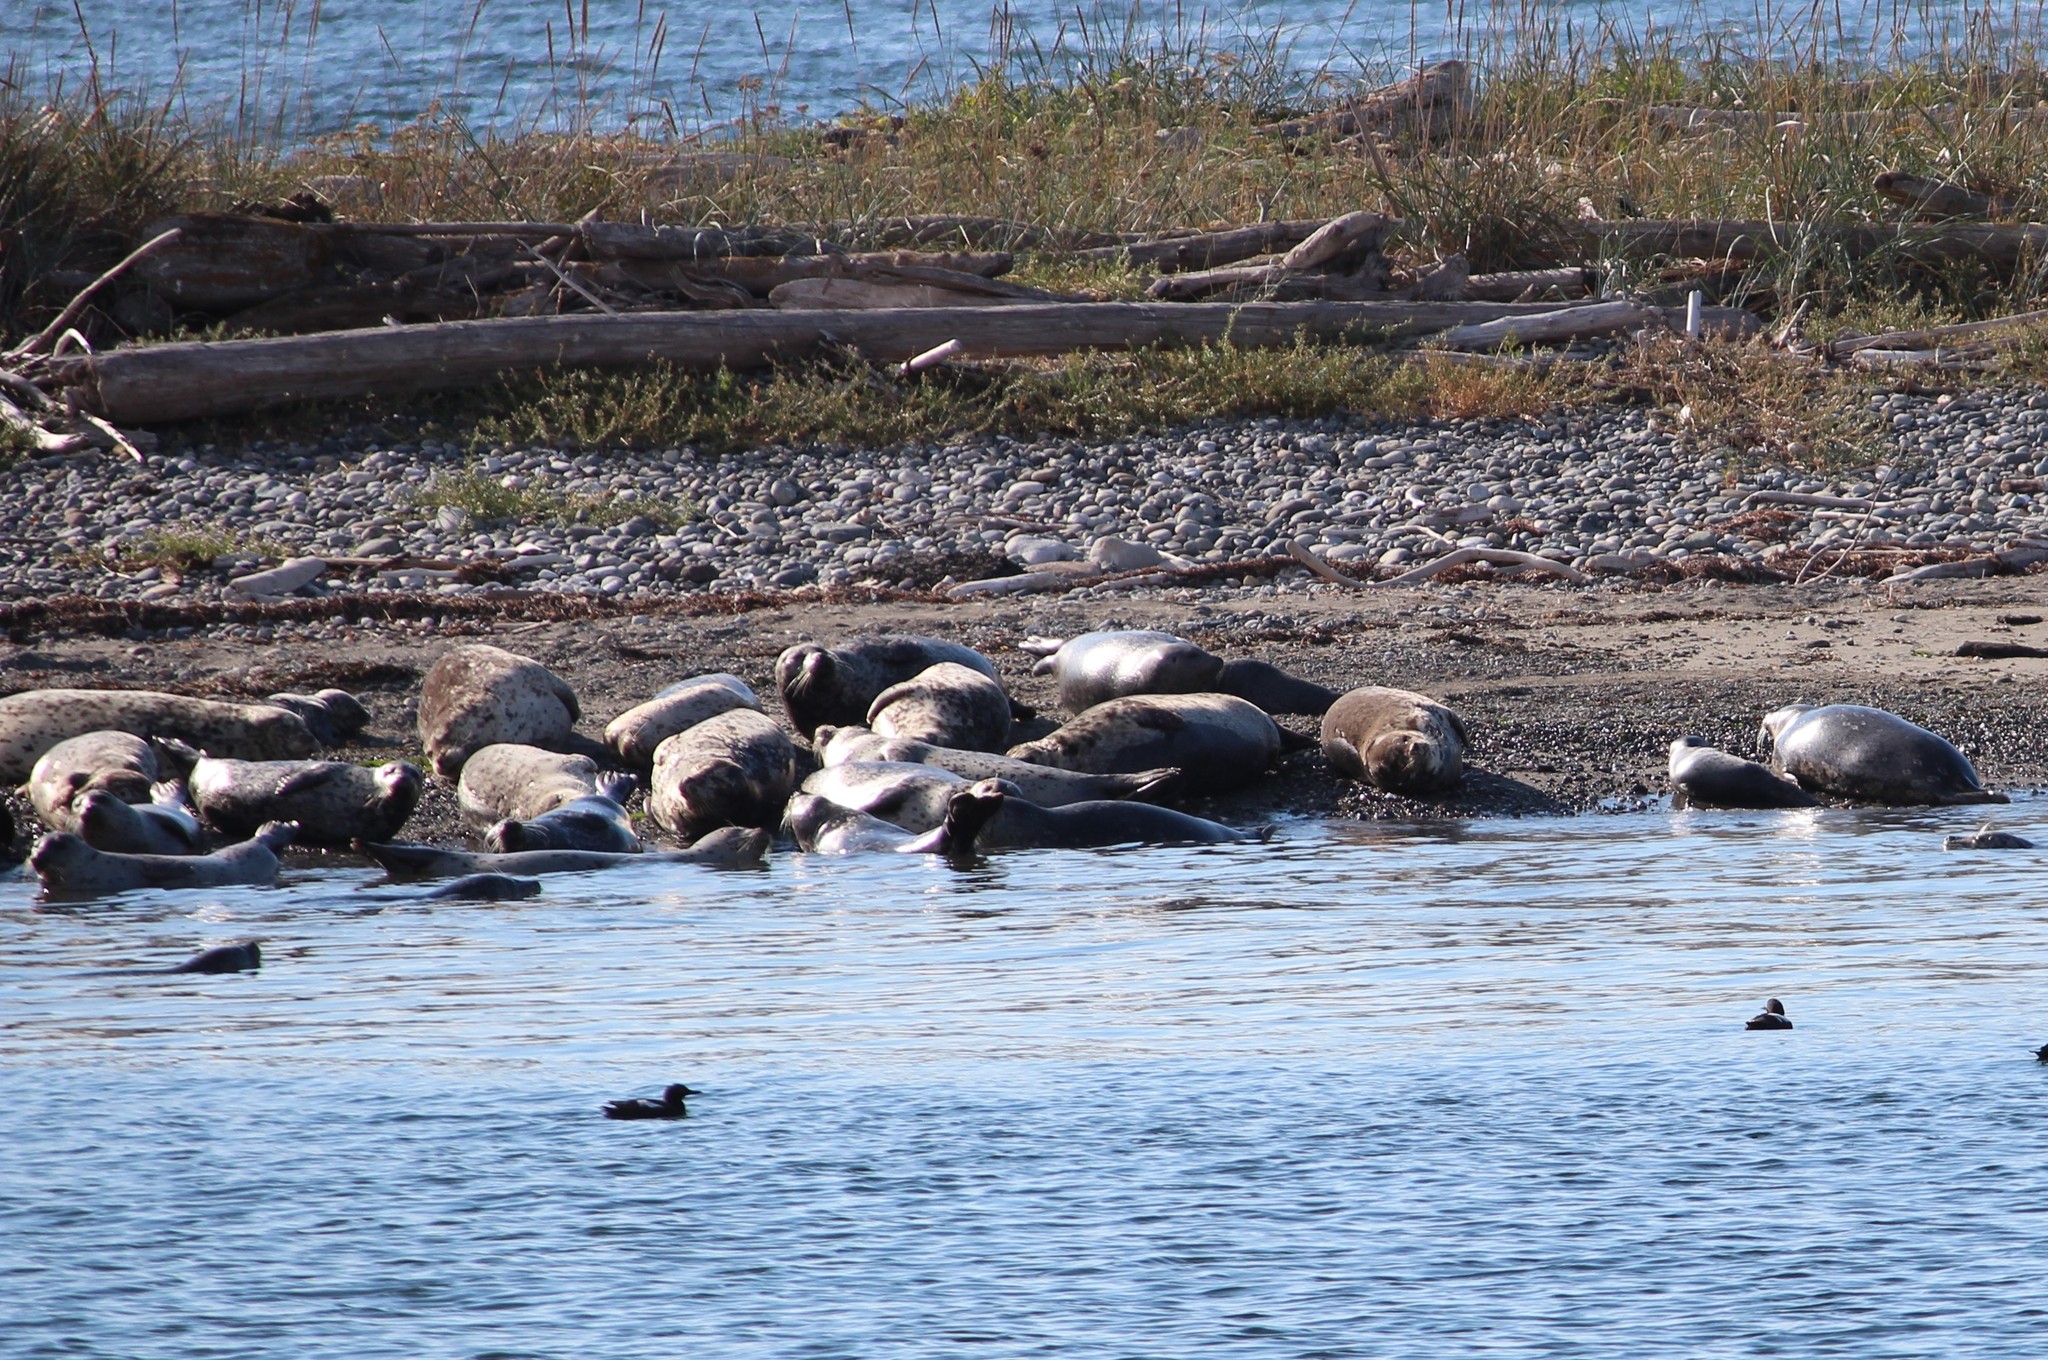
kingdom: Animalia
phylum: Chordata
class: Mammalia
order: Carnivora
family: Phocidae
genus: Phoca
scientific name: Phoca vitulina
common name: Harbor seal
